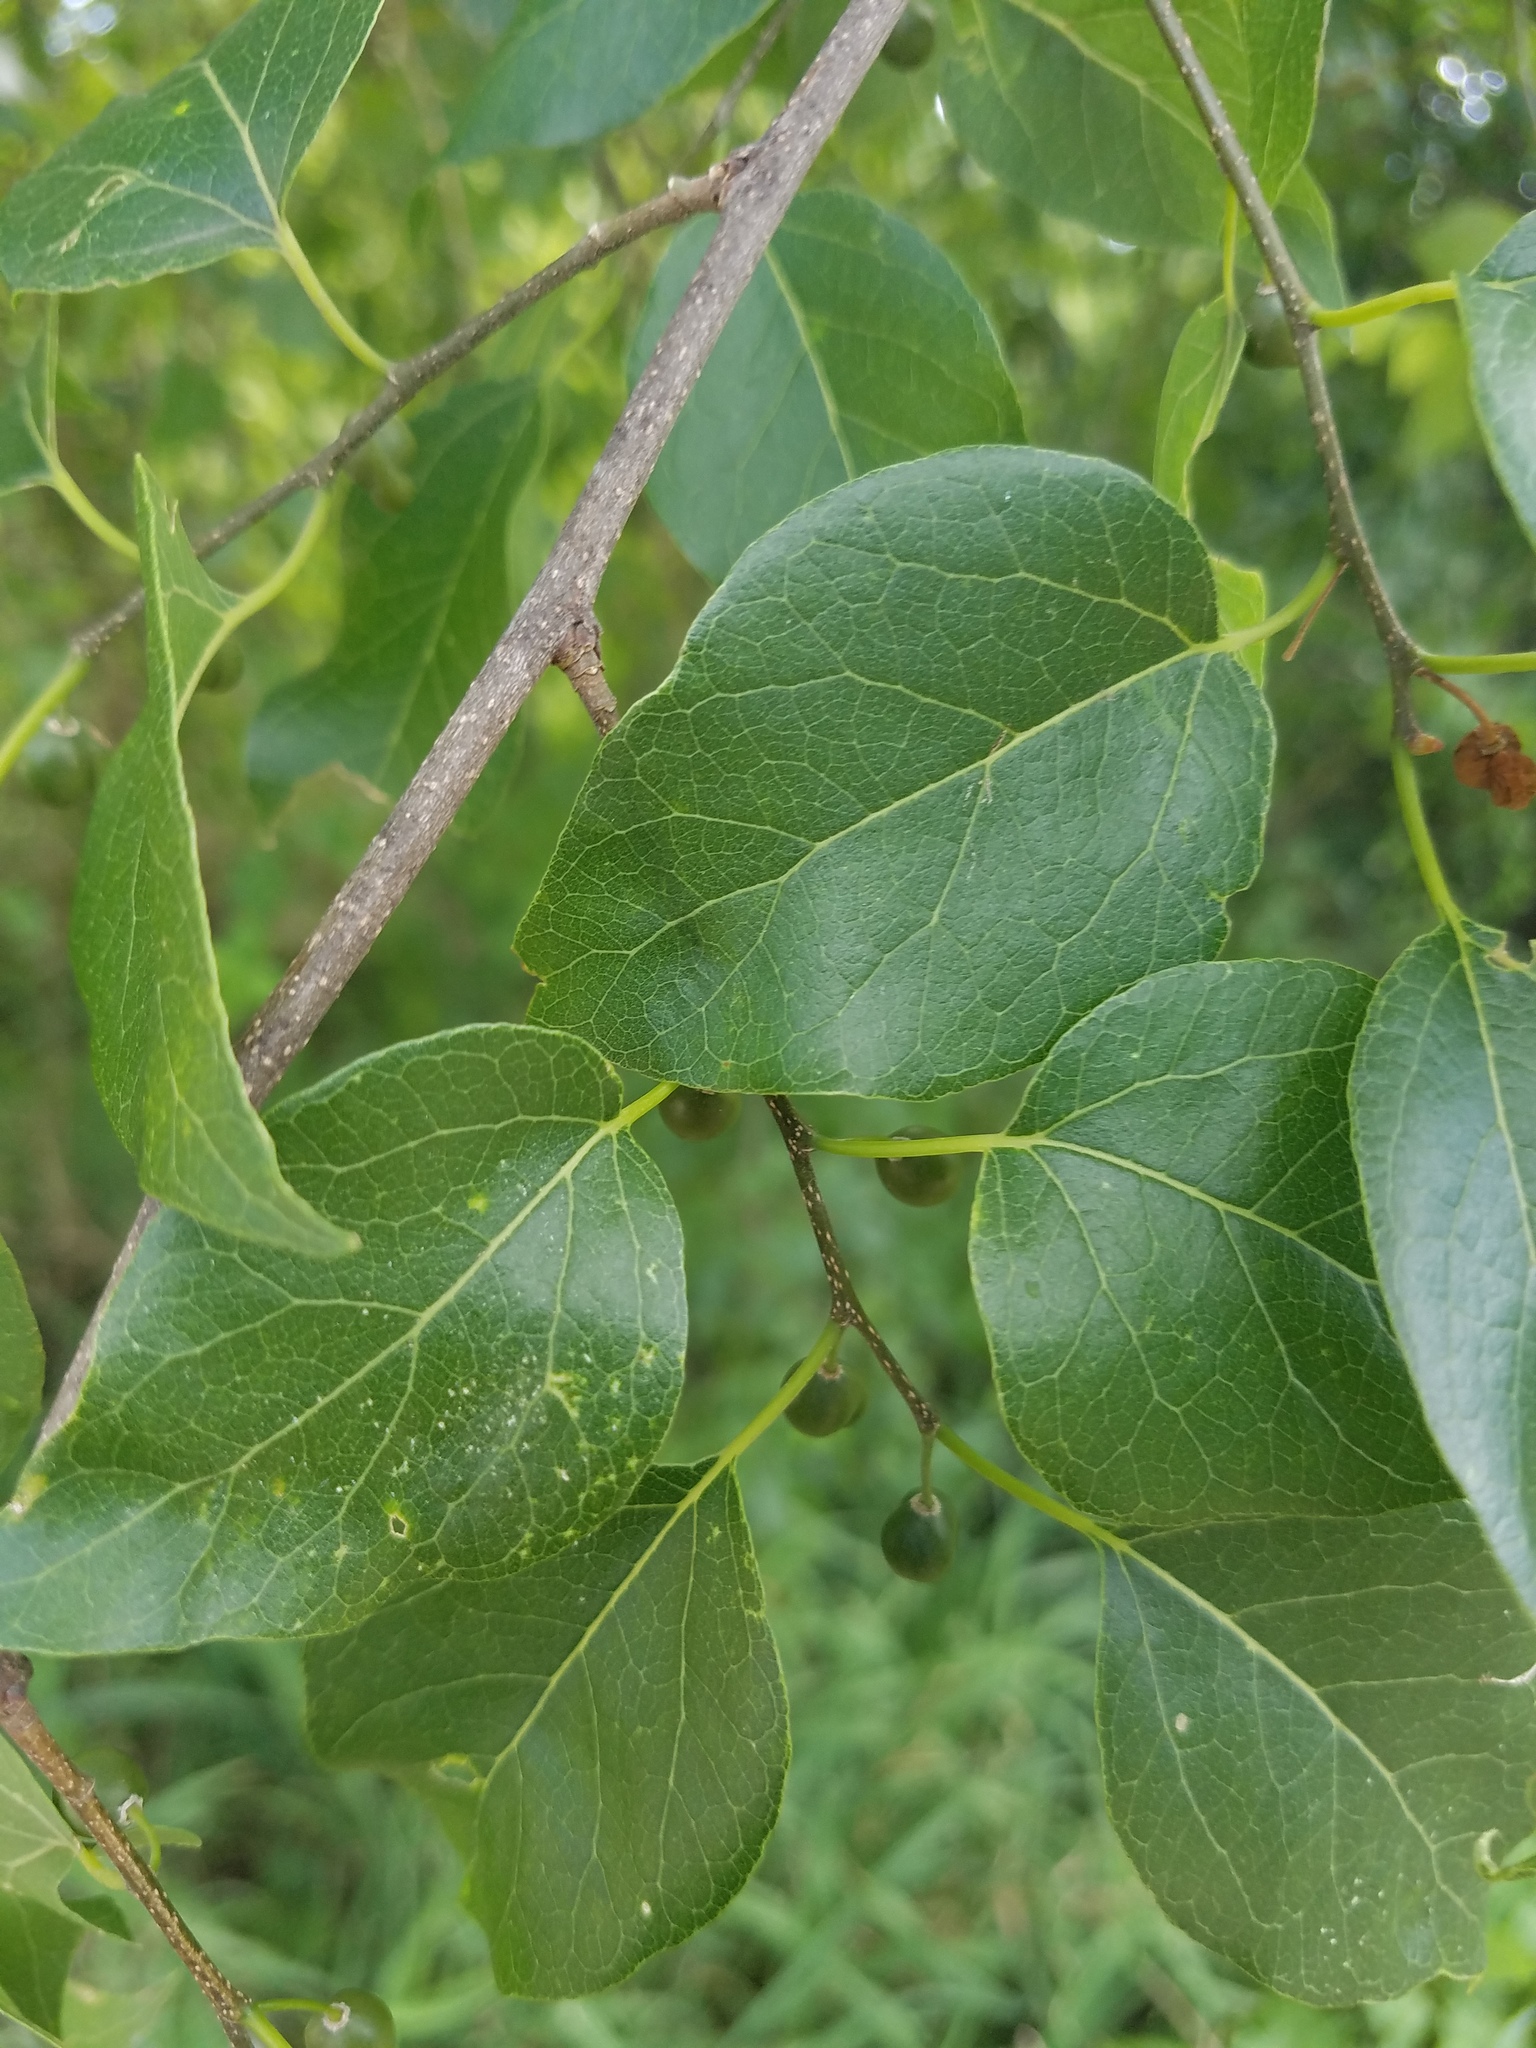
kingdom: Plantae
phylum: Tracheophyta
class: Magnoliopsida
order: Rosales
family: Cannabaceae
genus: Celtis
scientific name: Celtis laevigata
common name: Sugarberry
